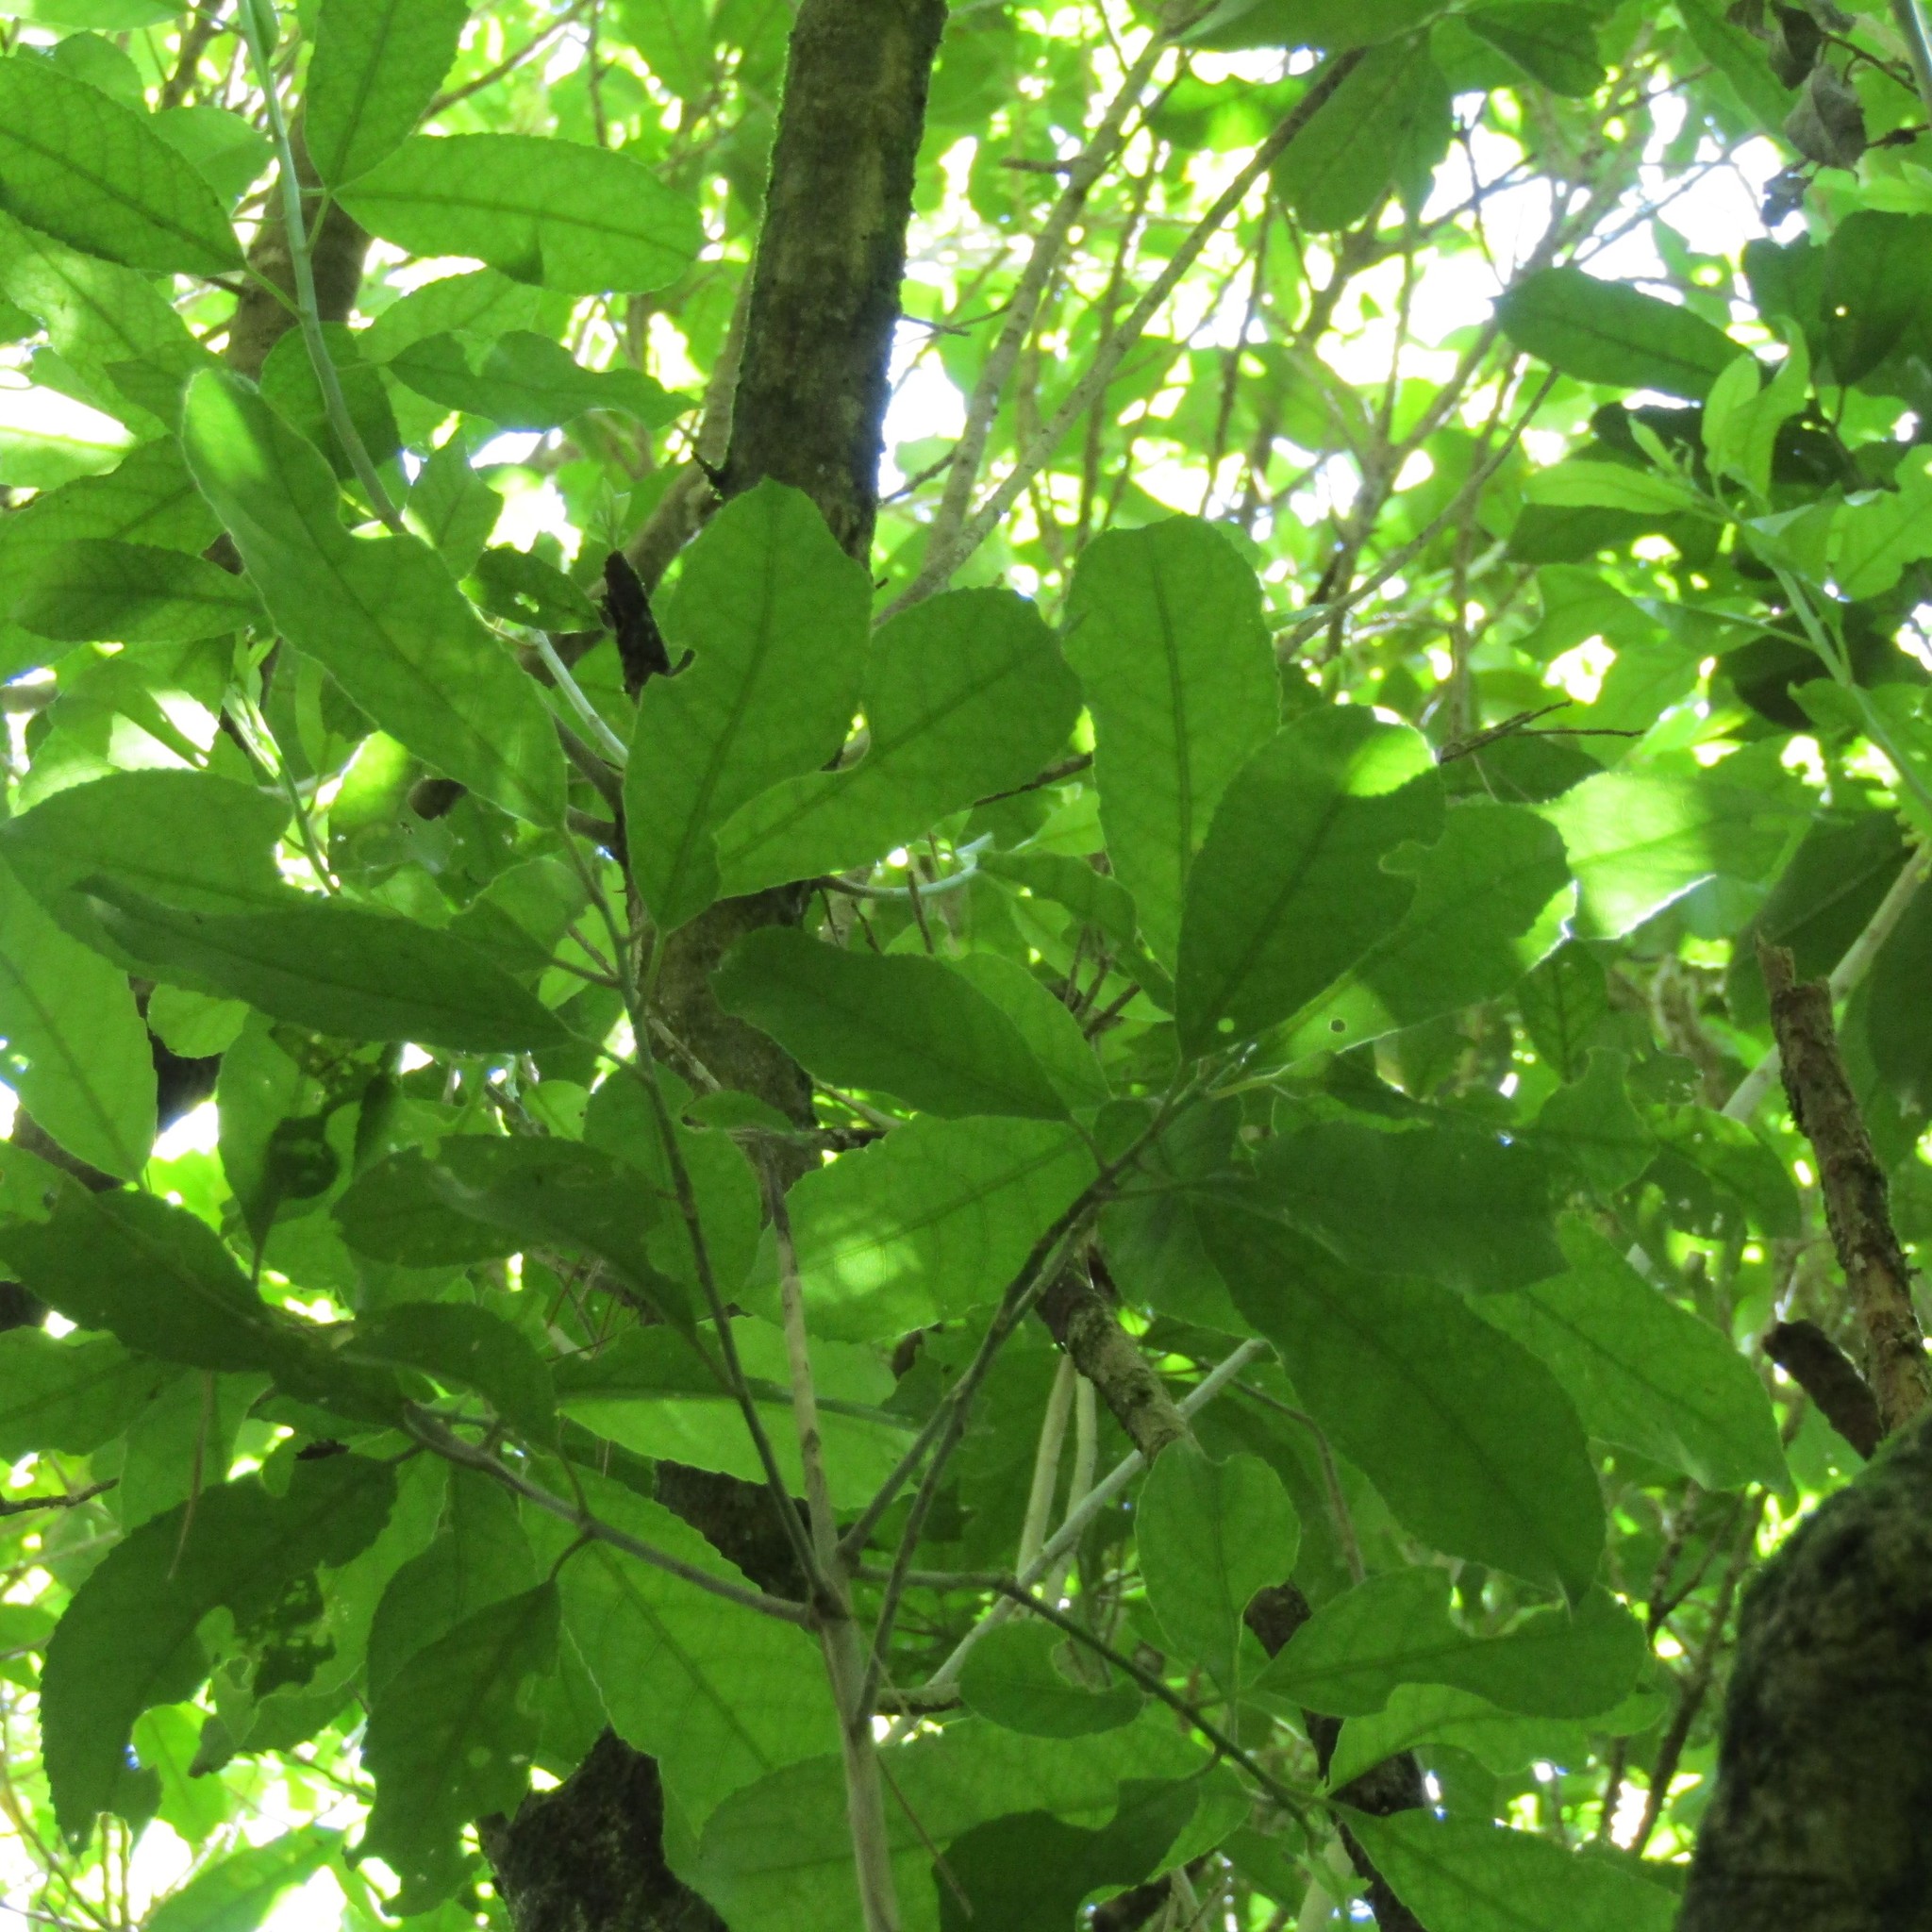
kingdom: Plantae
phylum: Tracheophyta
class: Magnoliopsida
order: Malpighiales
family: Violaceae
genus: Melicytus
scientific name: Melicytus ramiflorus
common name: Mahoe
